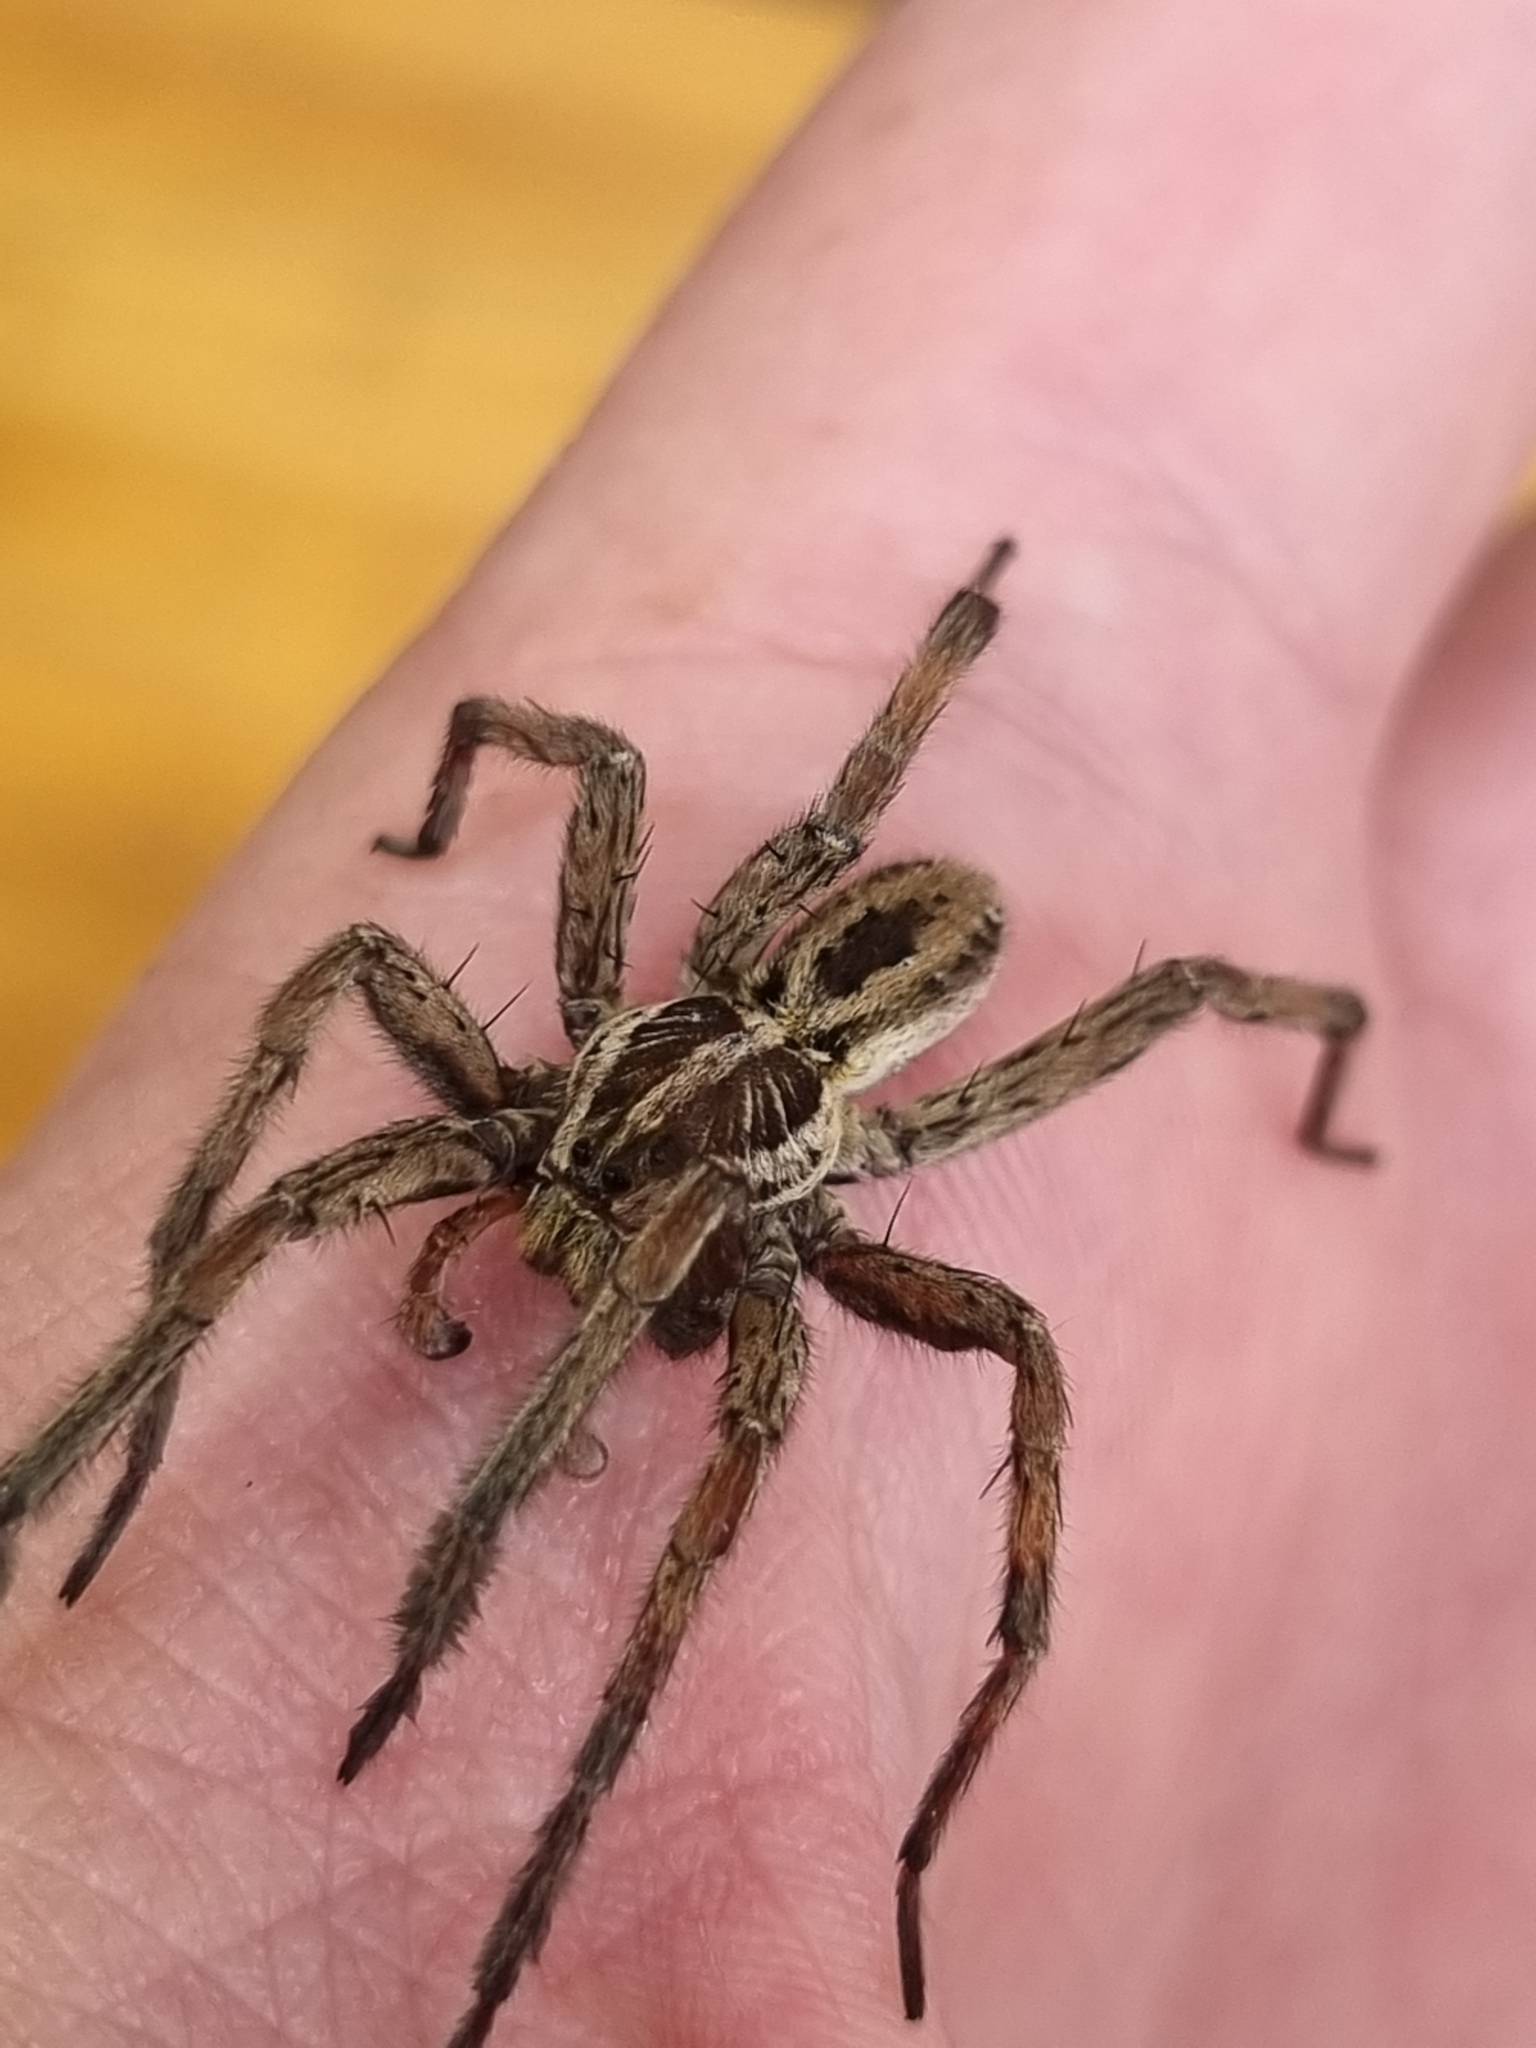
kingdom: Animalia
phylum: Arthropoda
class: Arachnida
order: Araneae
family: Lycosidae
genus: Hogna
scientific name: Hogna radiata
